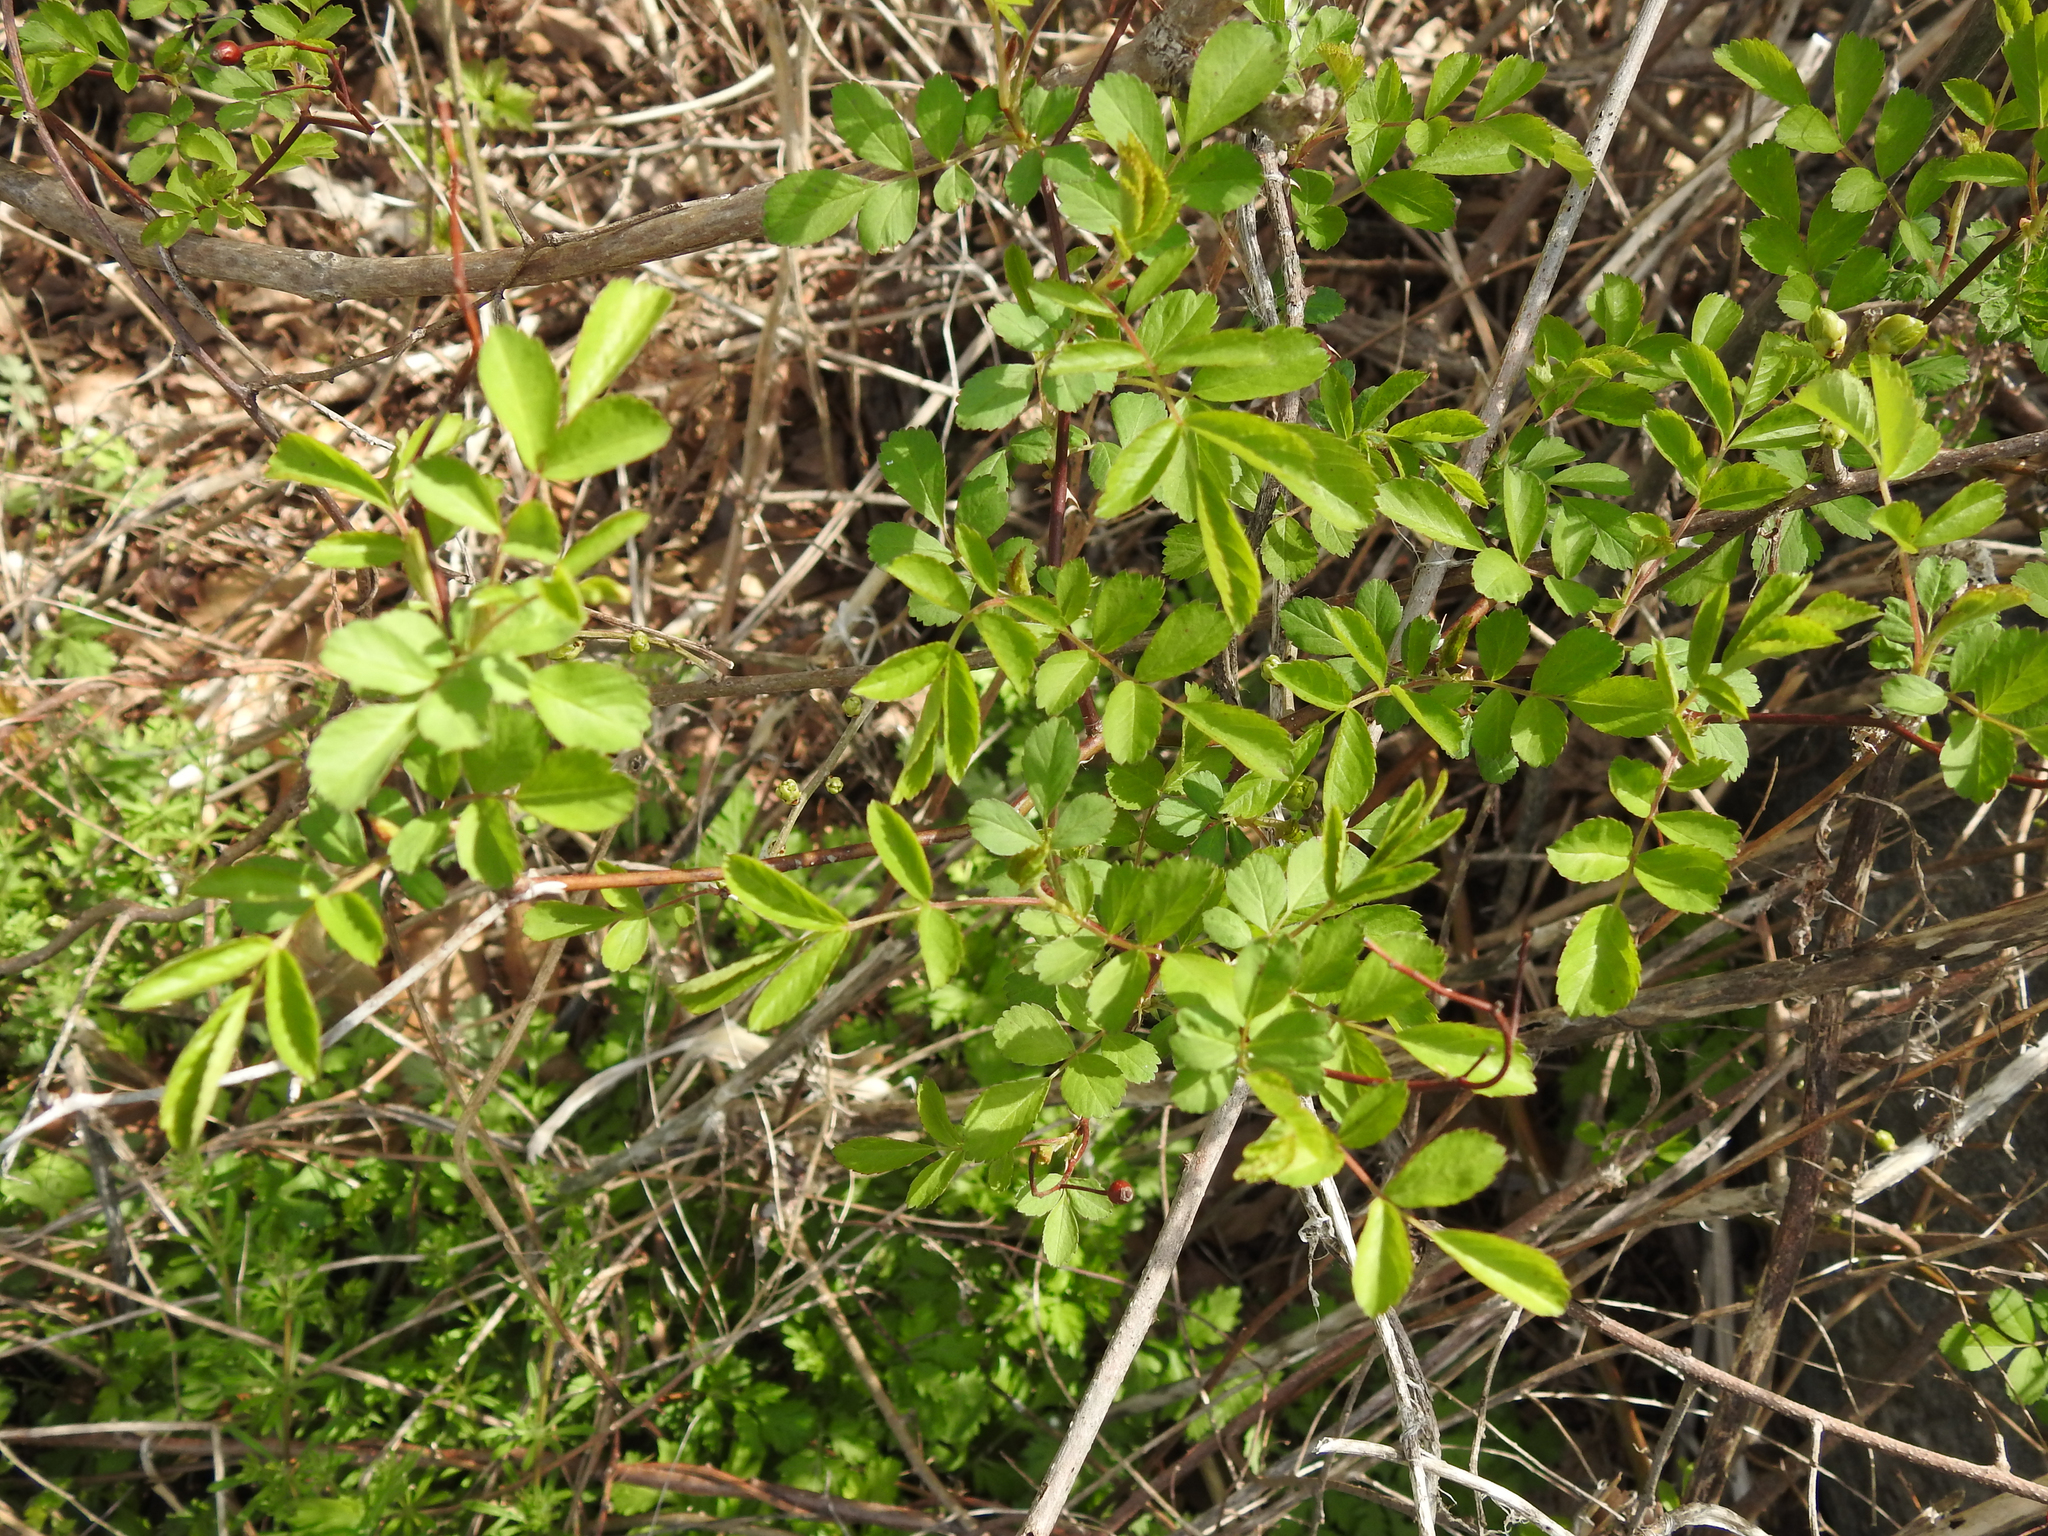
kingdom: Plantae
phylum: Tracheophyta
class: Magnoliopsida
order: Rosales
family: Rosaceae
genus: Rosa
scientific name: Rosa multiflora
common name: Multiflora rose
